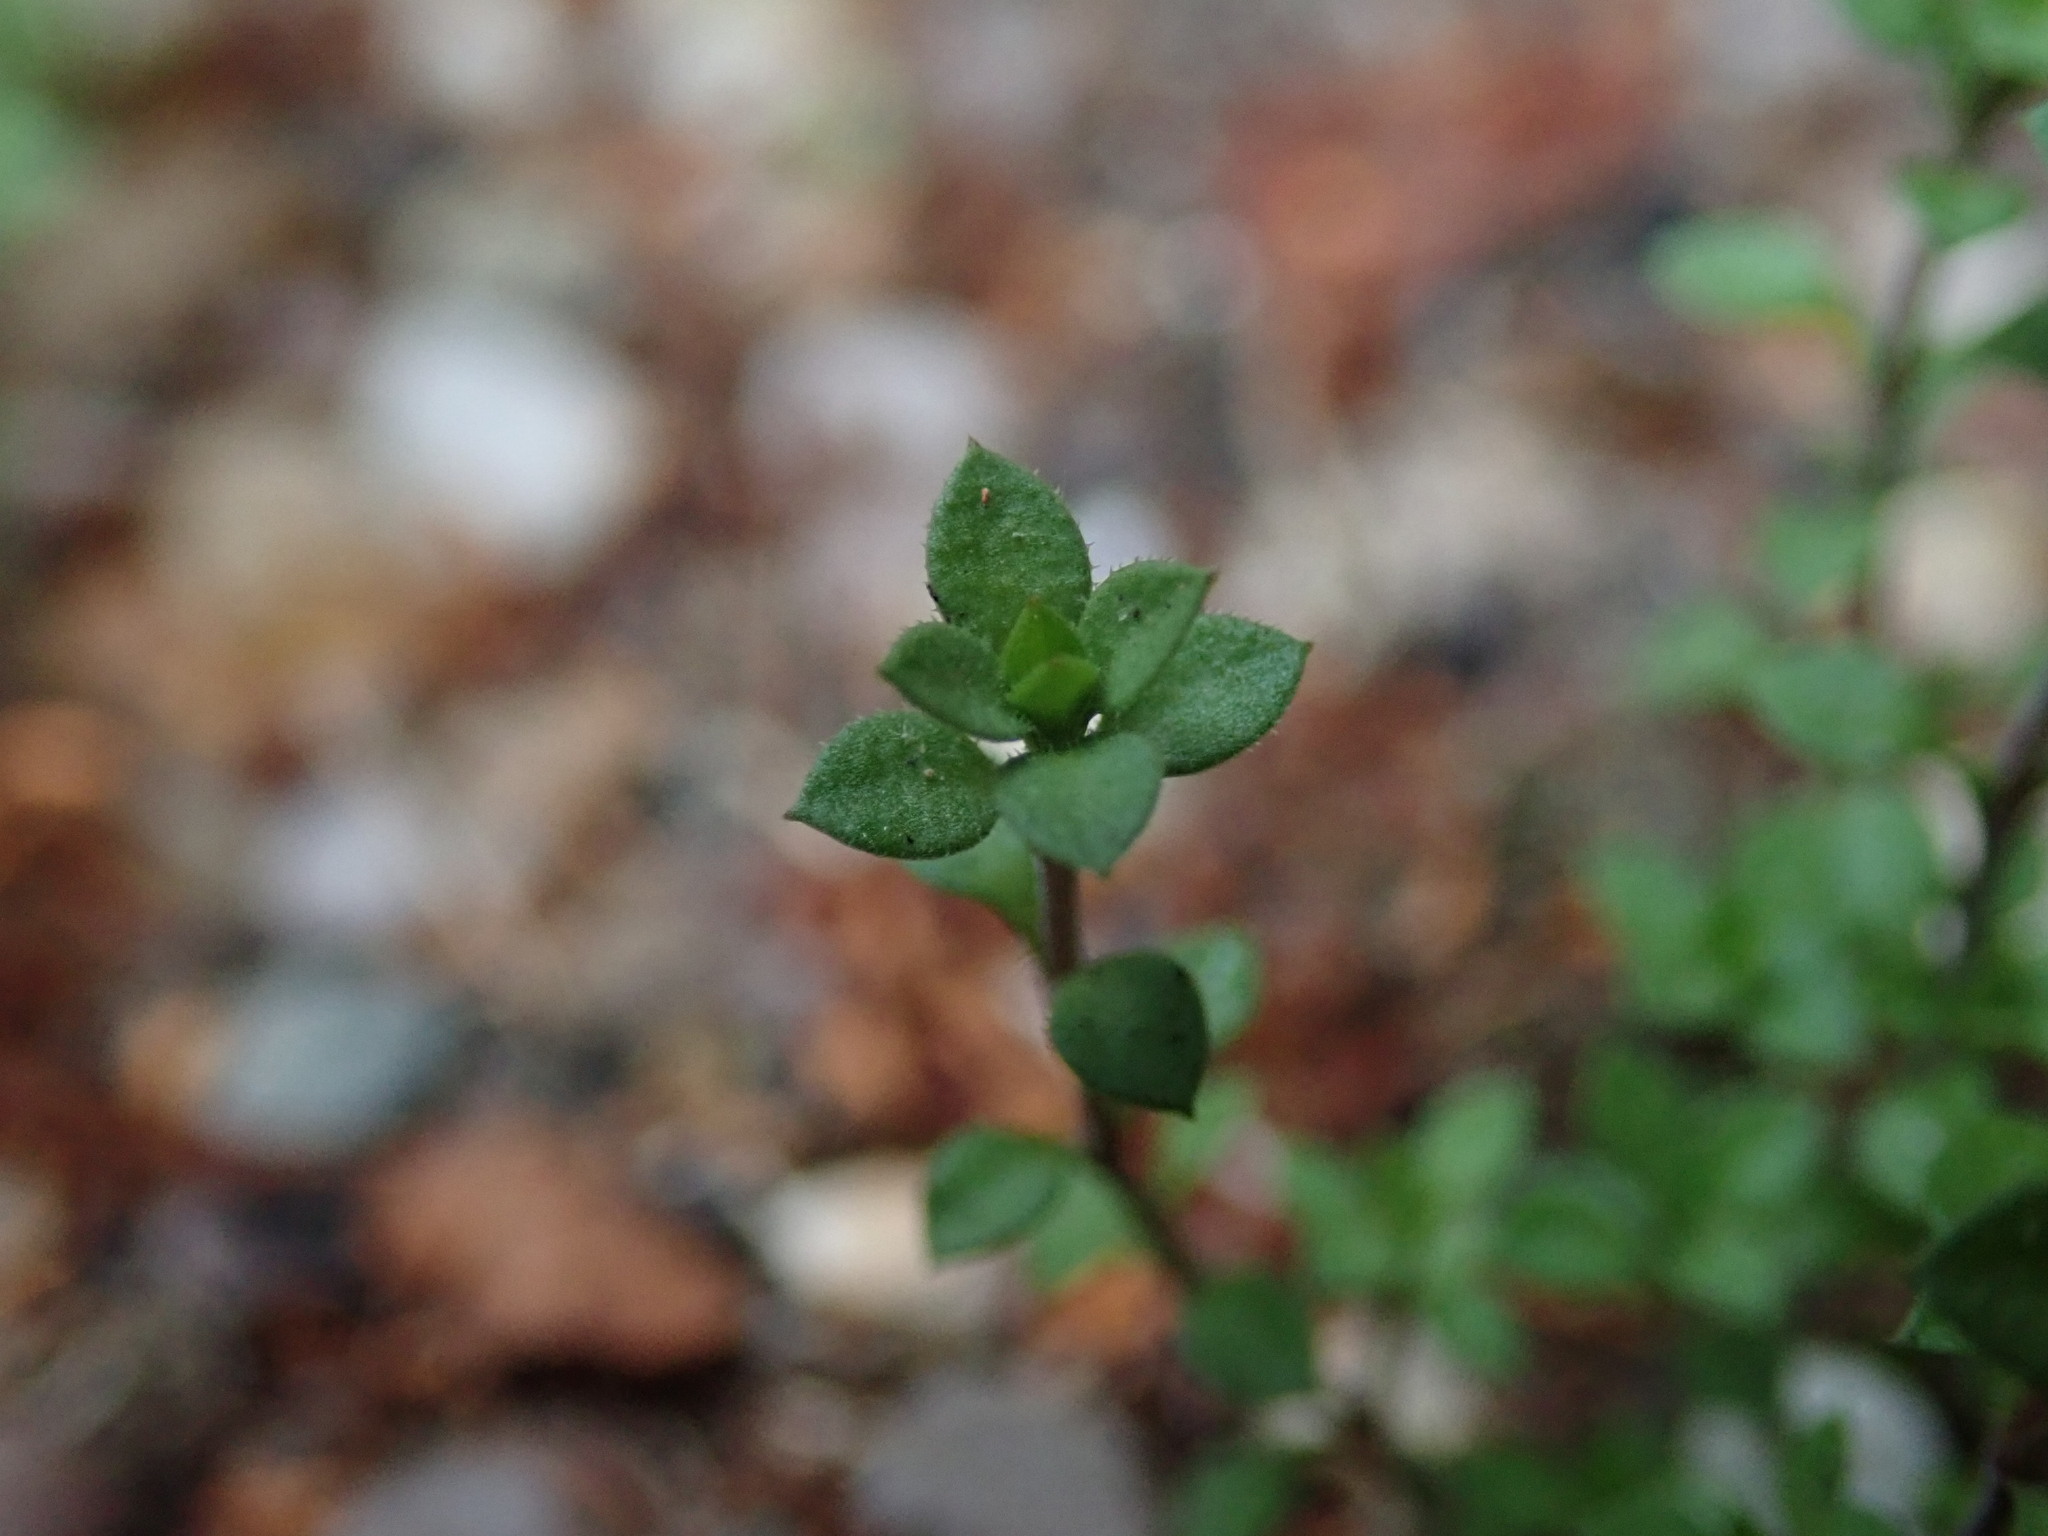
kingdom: Plantae
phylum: Tracheophyta
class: Magnoliopsida
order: Caryophyllales
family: Caryophyllaceae
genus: Arenaria
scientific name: Arenaria serpyllifolia
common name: Thyme-leaved sandwort
